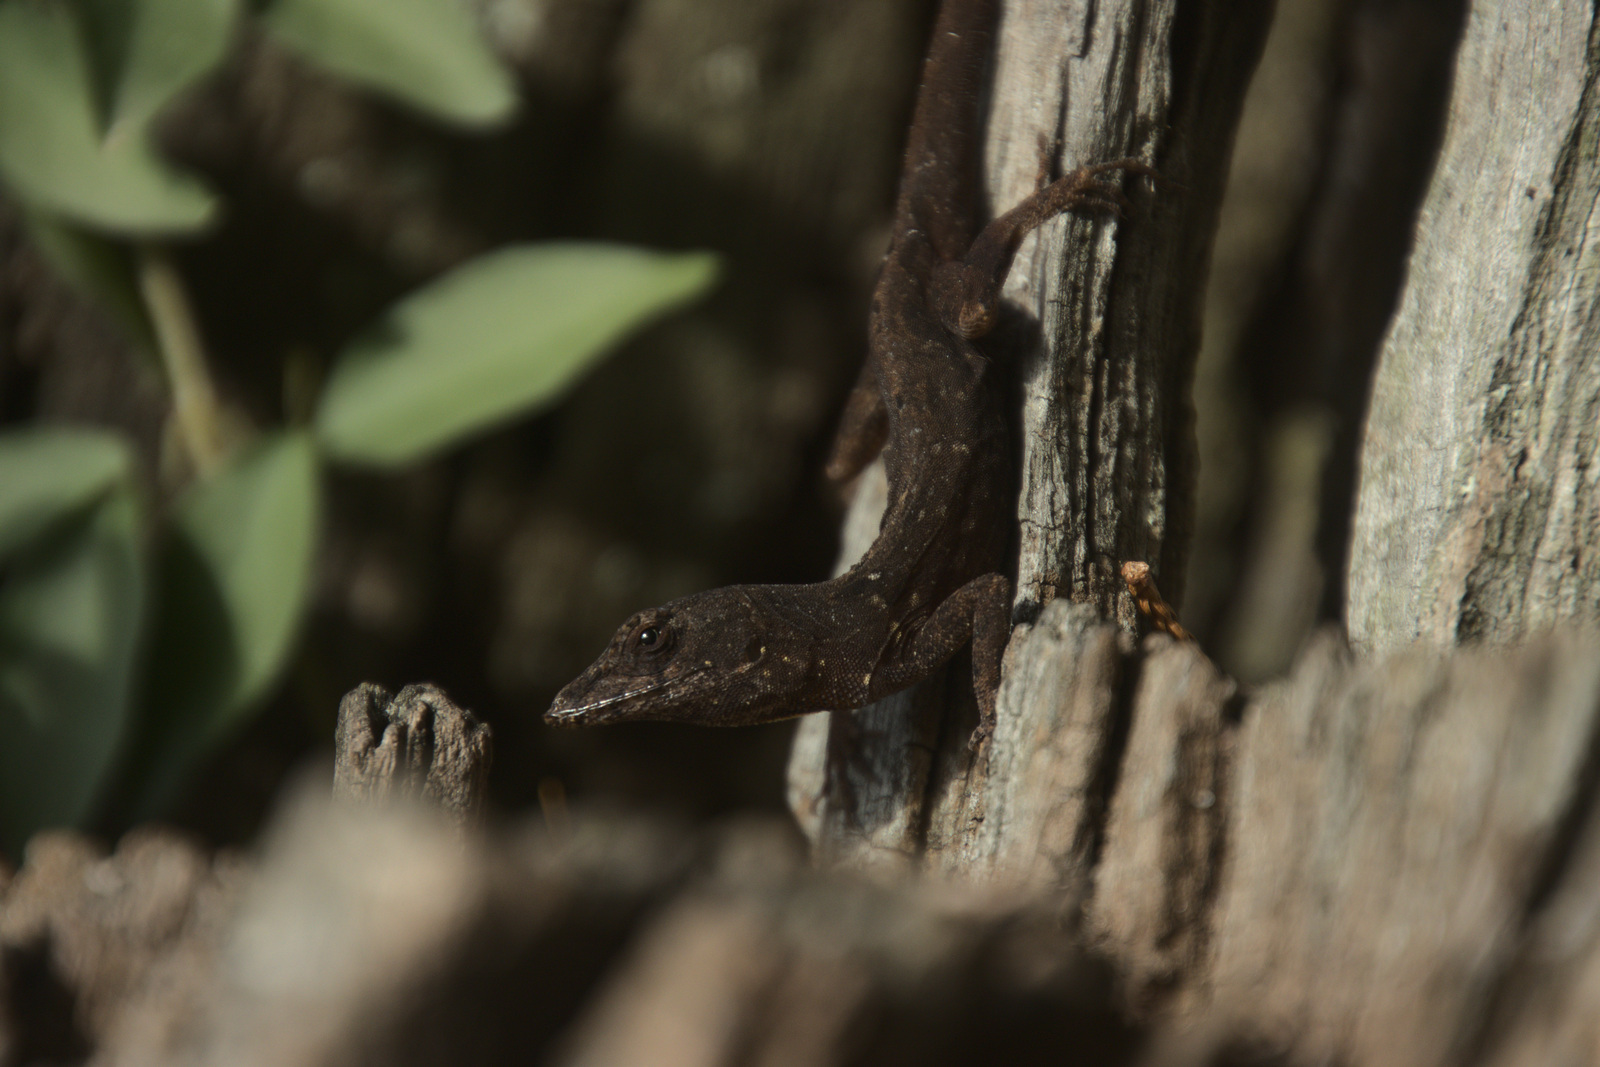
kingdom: Animalia
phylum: Chordata
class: Squamata
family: Dactyloidae
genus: Anolis
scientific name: Anolis sagrei
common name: Brown anole
